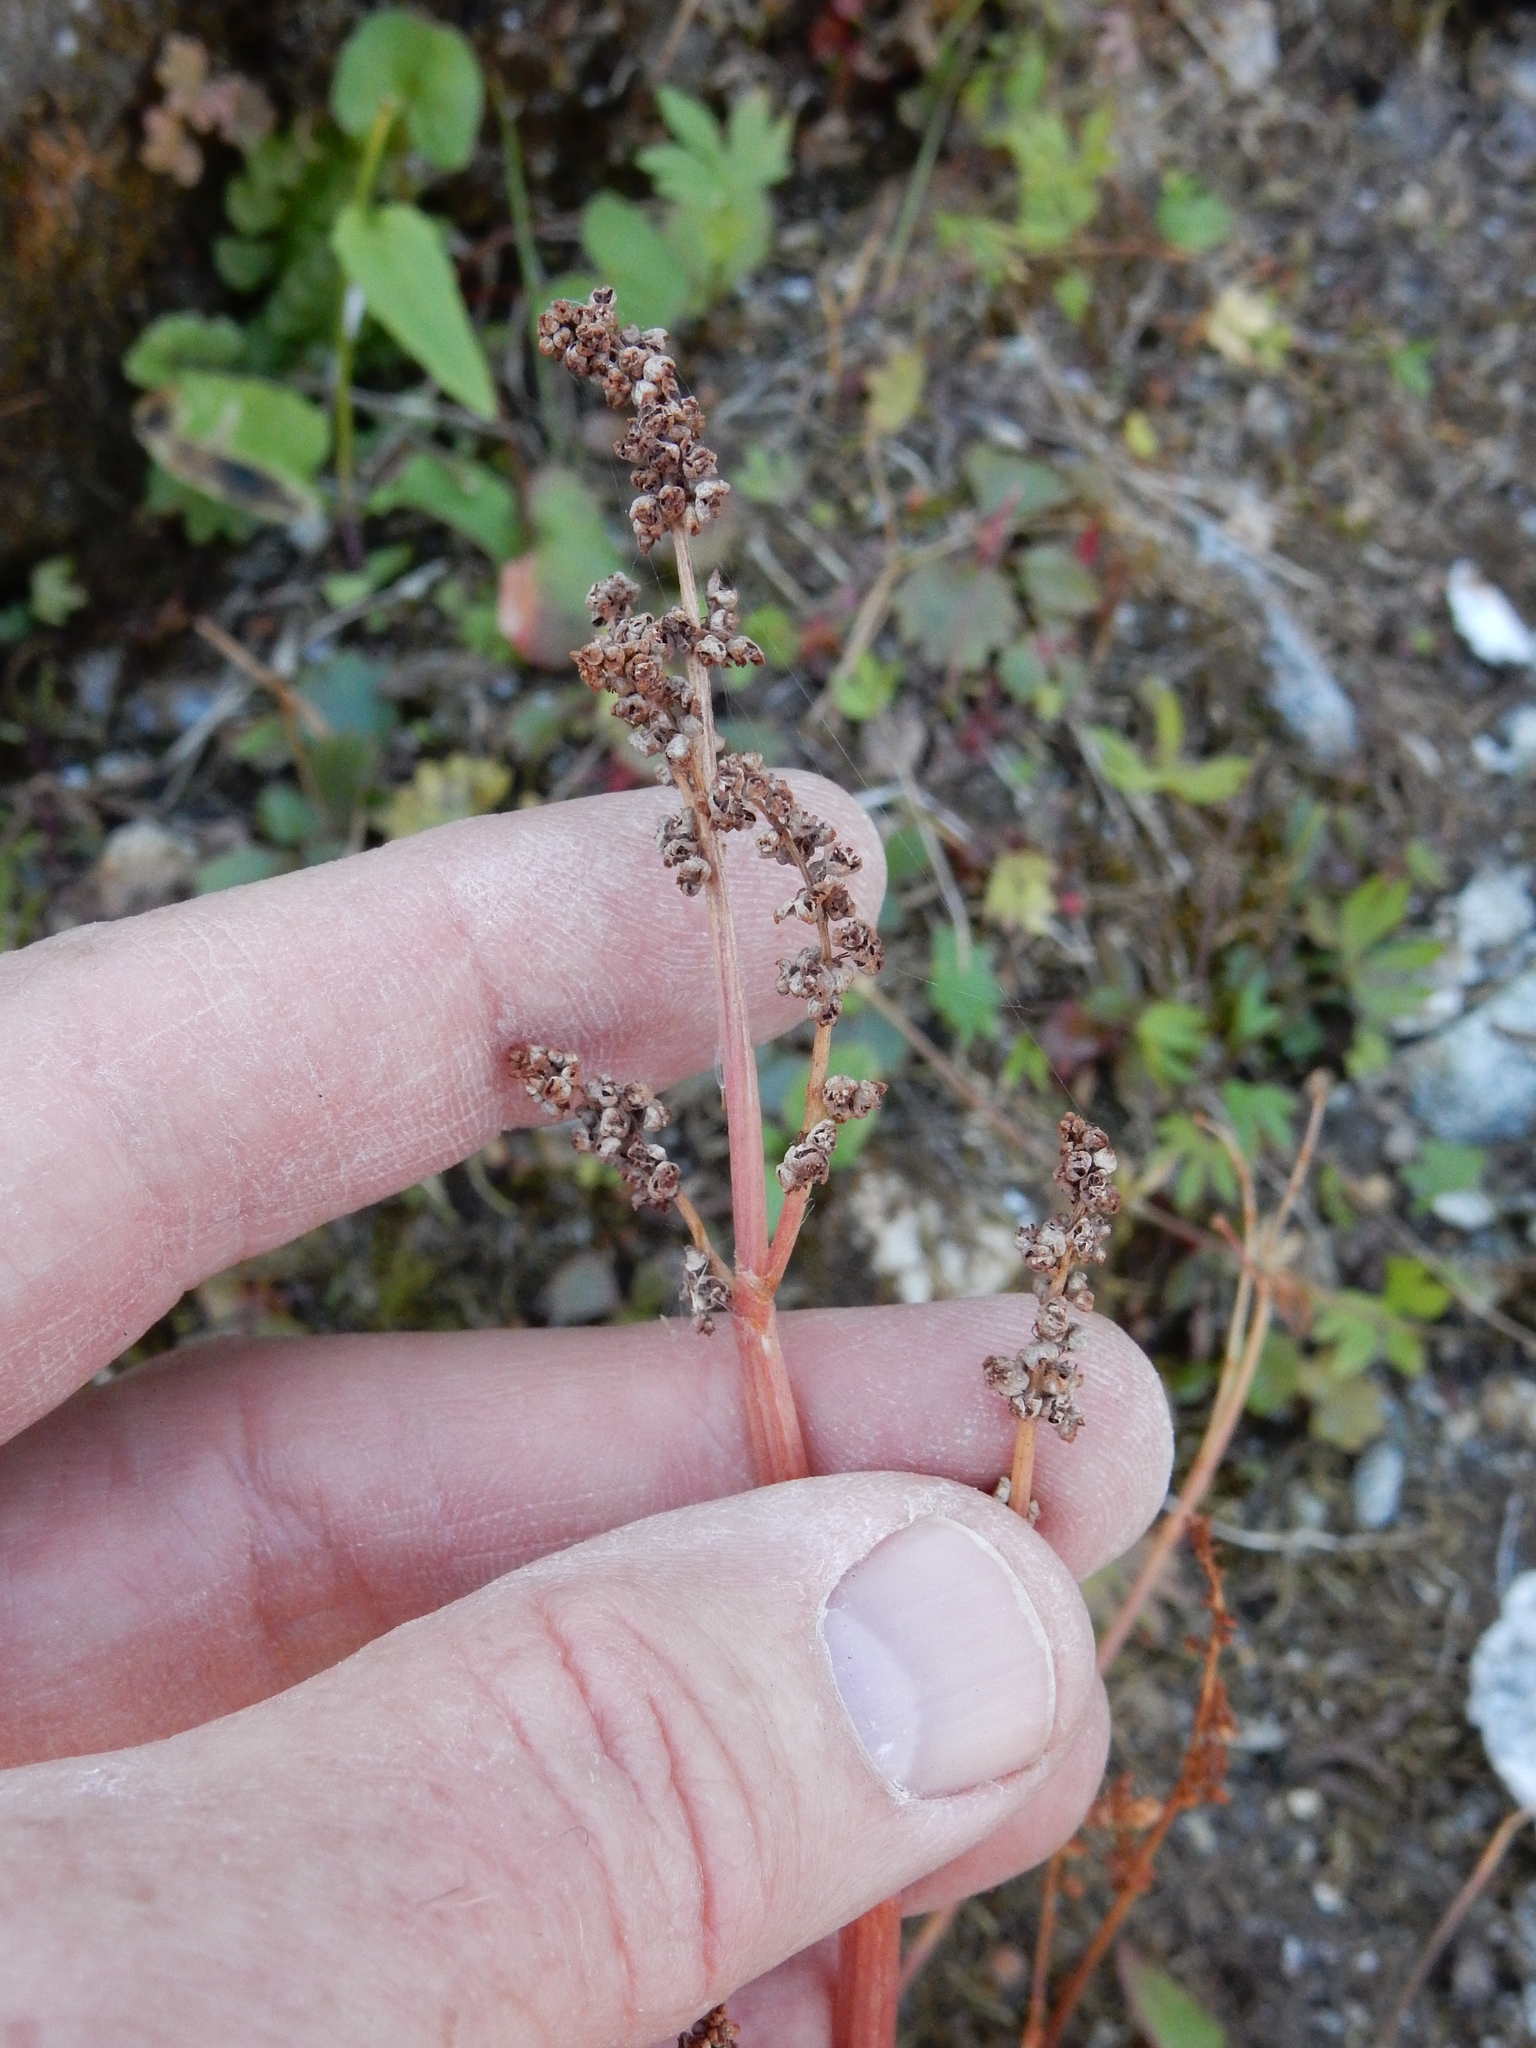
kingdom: Plantae
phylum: Tracheophyta
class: Magnoliopsida
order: Caryophyllales
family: Polygonaceae
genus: Oxyria
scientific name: Oxyria digyna
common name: Alpine mountain-sorrel
